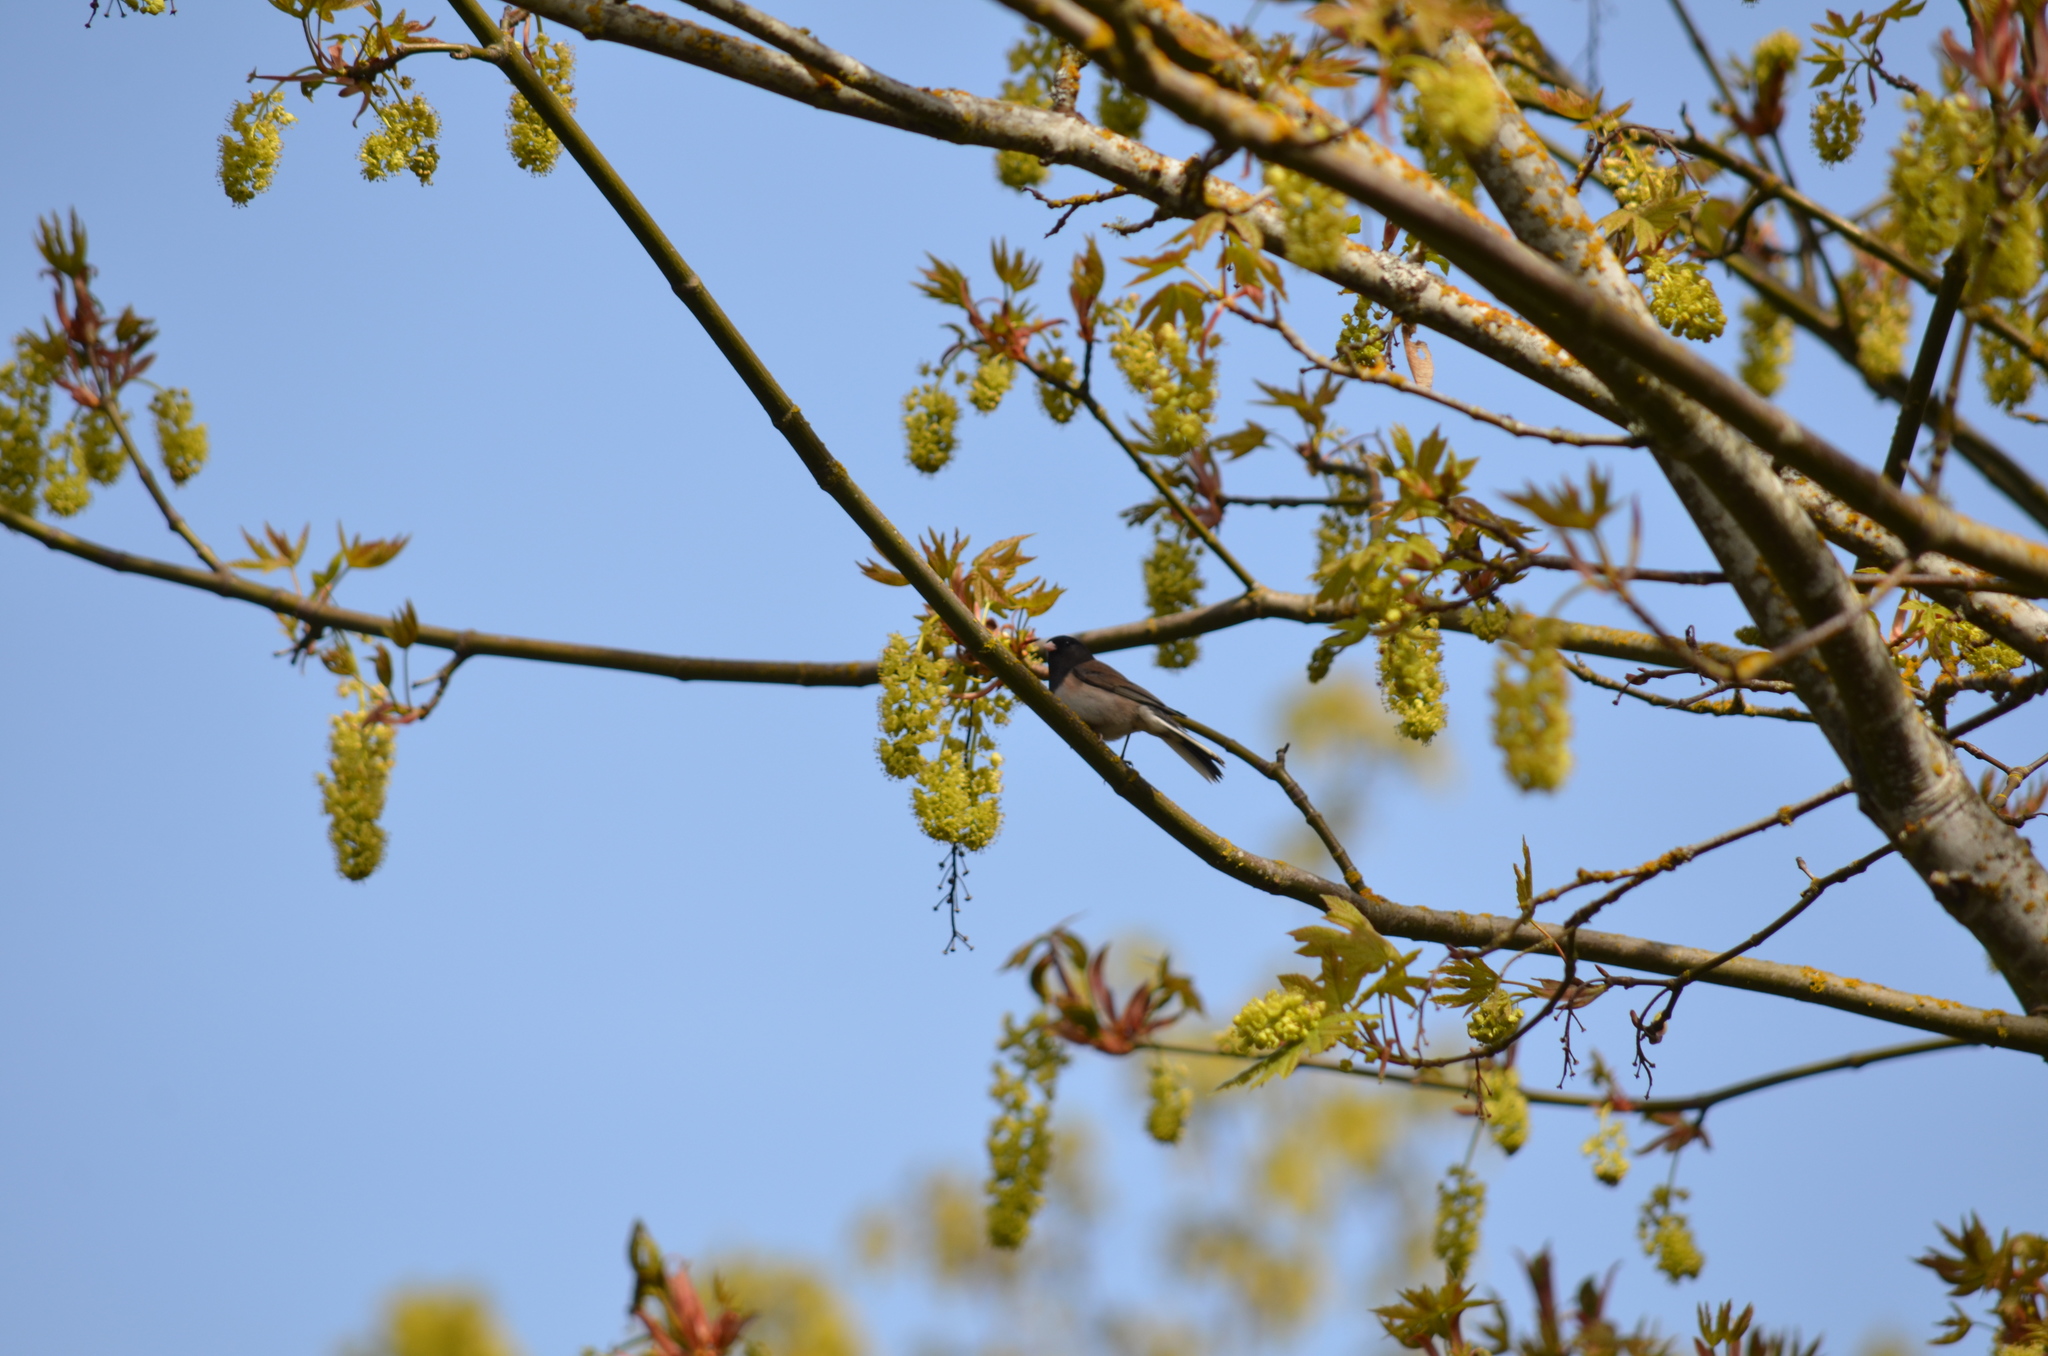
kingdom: Animalia
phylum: Chordata
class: Aves
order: Passeriformes
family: Passerellidae
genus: Junco
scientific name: Junco hyemalis
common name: Dark-eyed junco
